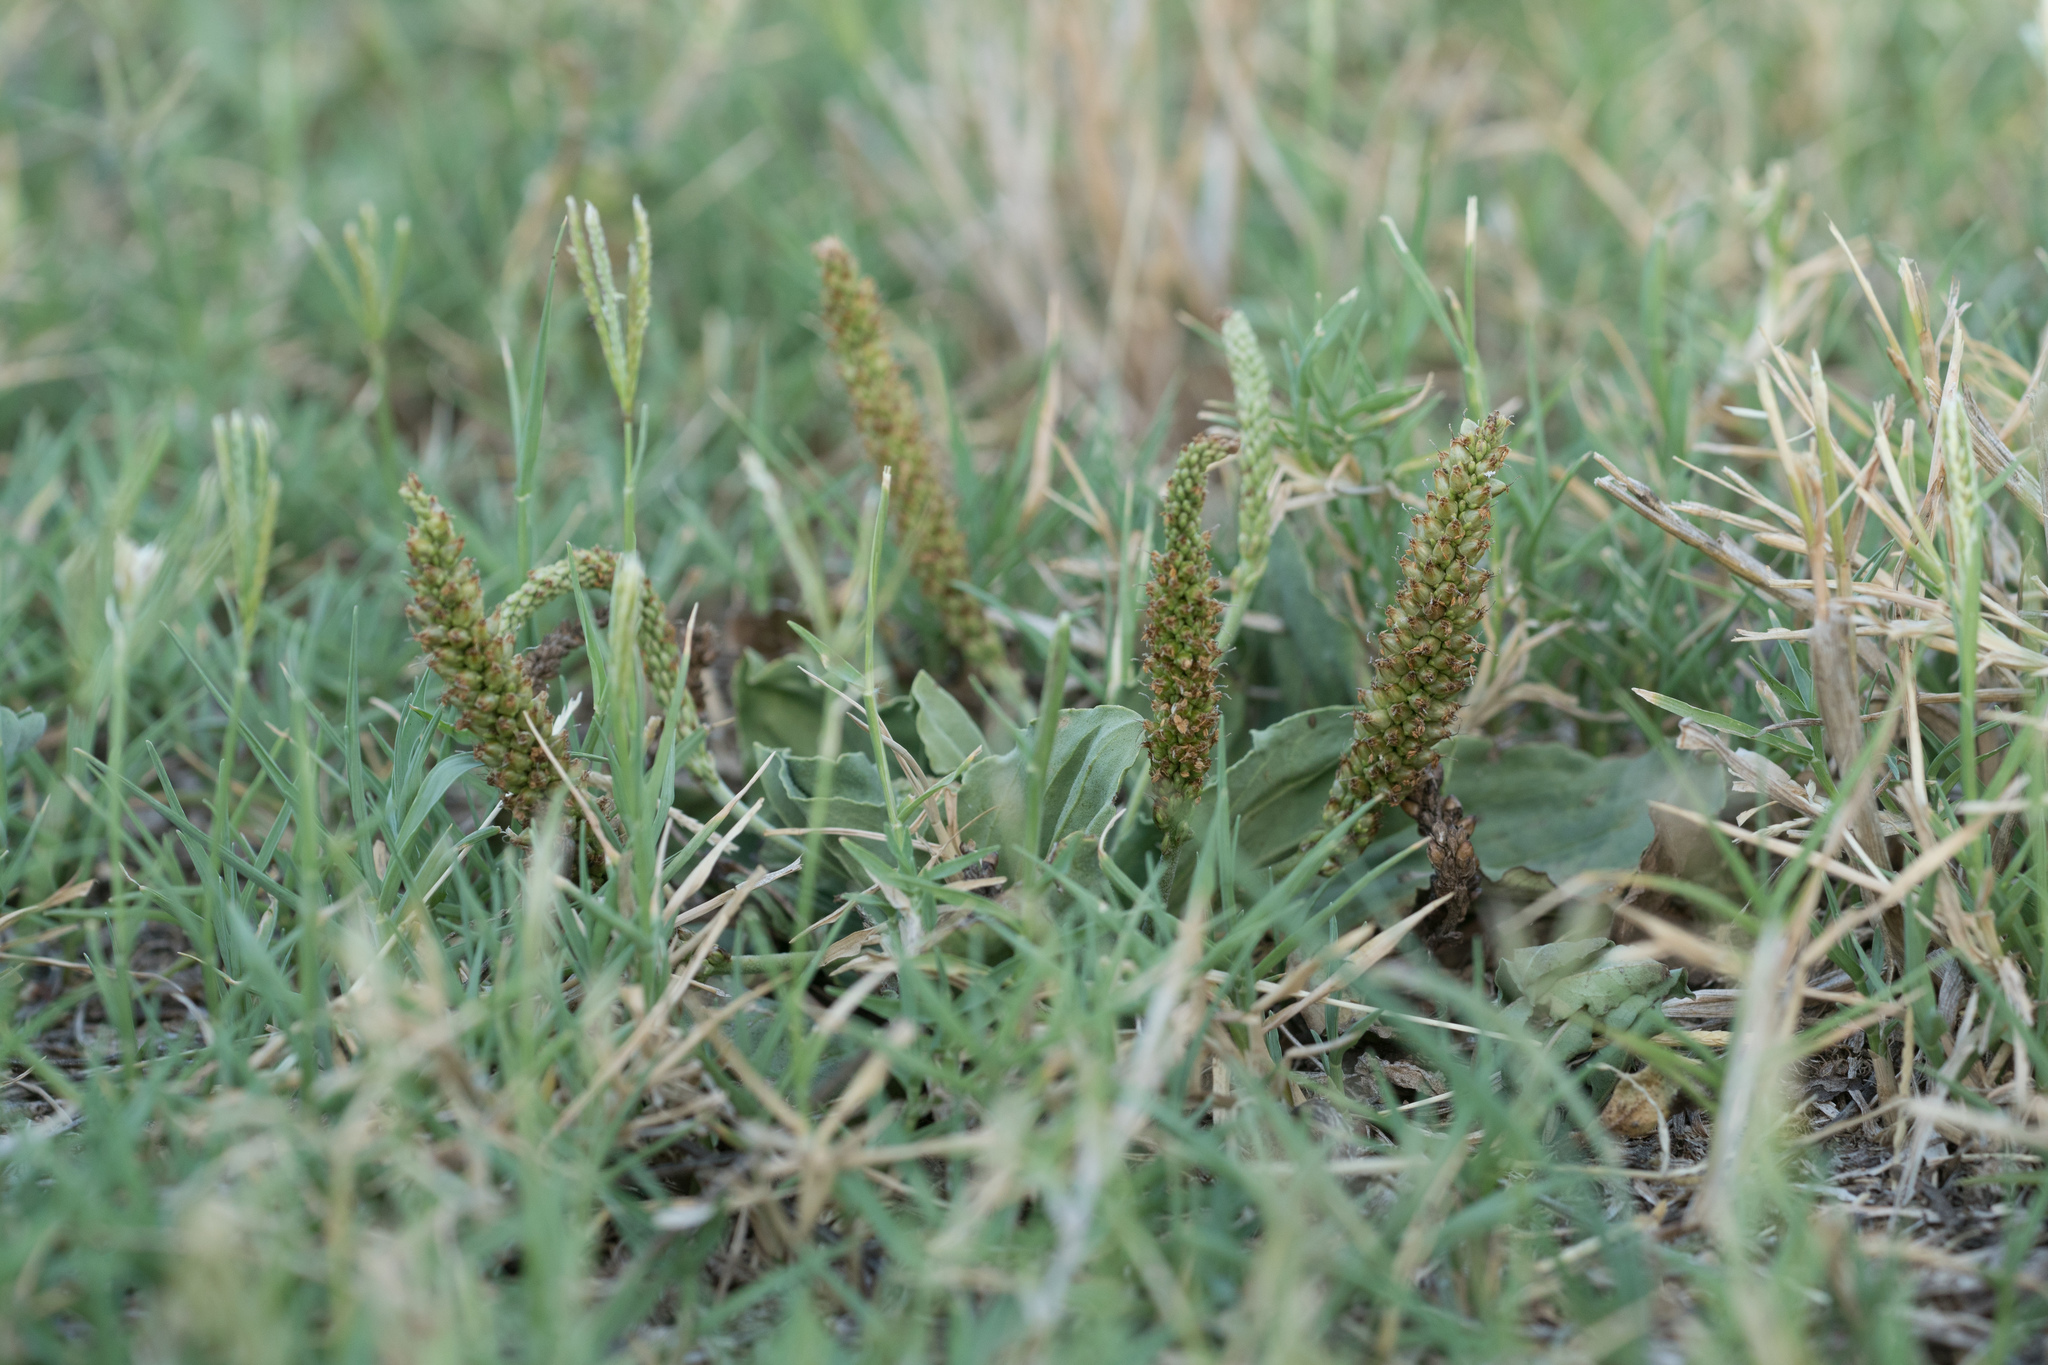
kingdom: Plantae
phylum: Tracheophyta
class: Magnoliopsida
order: Lamiales
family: Plantaginaceae
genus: Plantago
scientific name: Plantago major
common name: Common plantain
